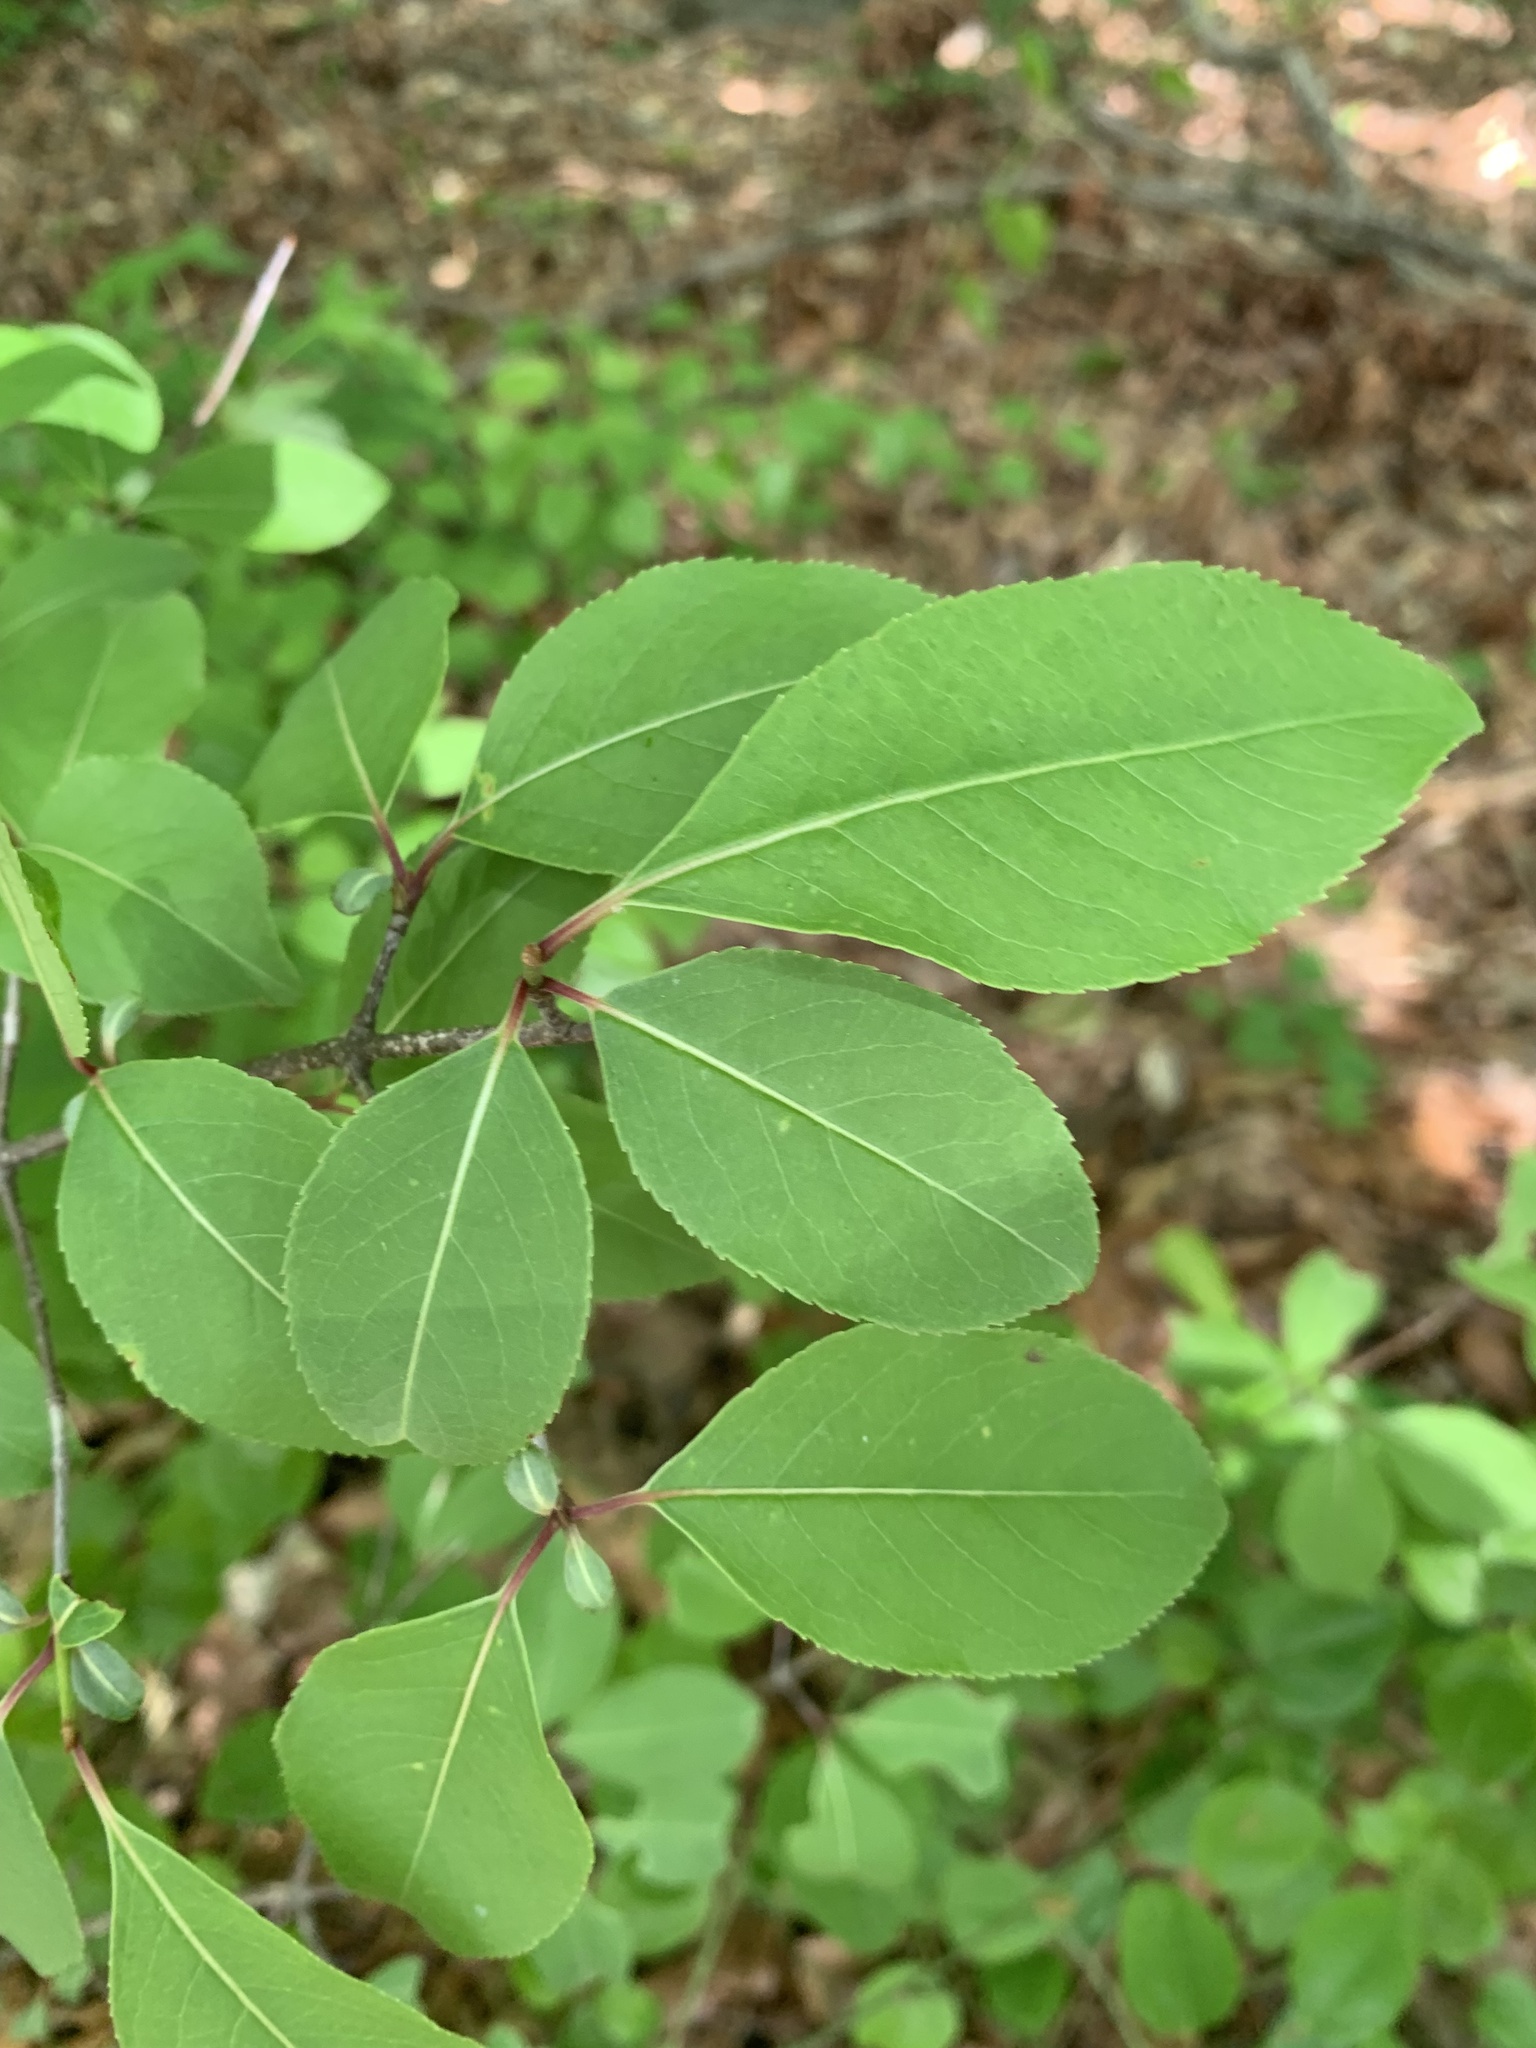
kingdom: Plantae
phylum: Tracheophyta
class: Magnoliopsida
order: Dipsacales
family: Viburnaceae
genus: Viburnum
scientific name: Viburnum prunifolium
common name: Black haw
